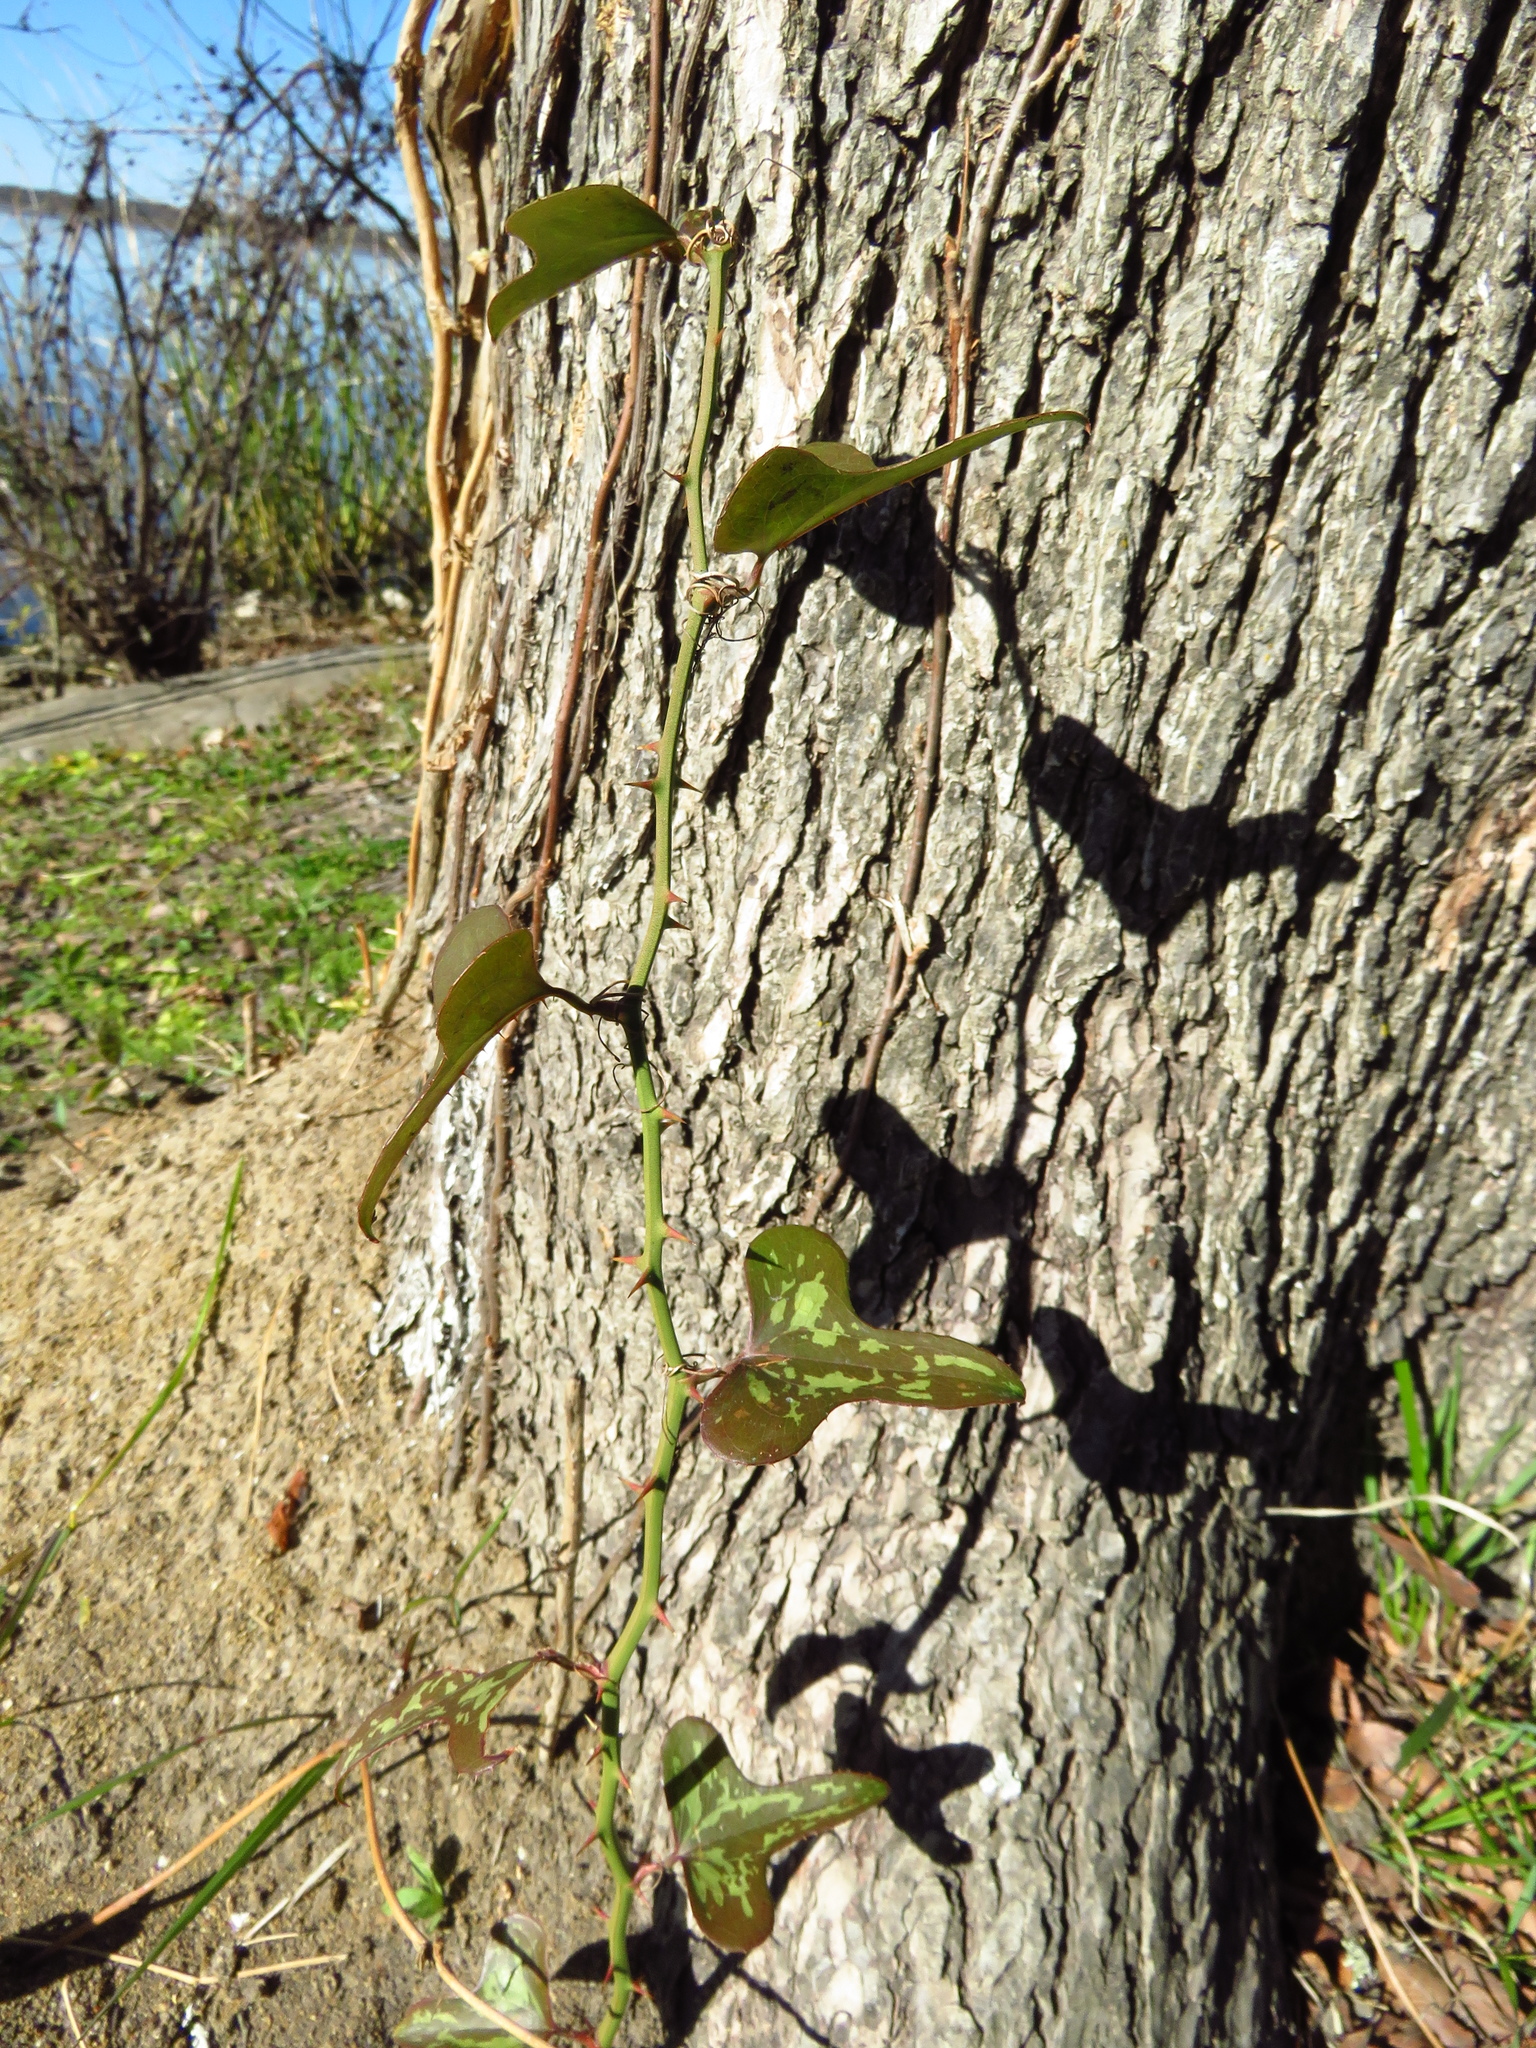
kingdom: Plantae
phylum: Tracheophyta
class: Liliopsida
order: Liliales
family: Smilacaceae
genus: Smilax
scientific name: Smilax bona-nox
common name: Catbrier
